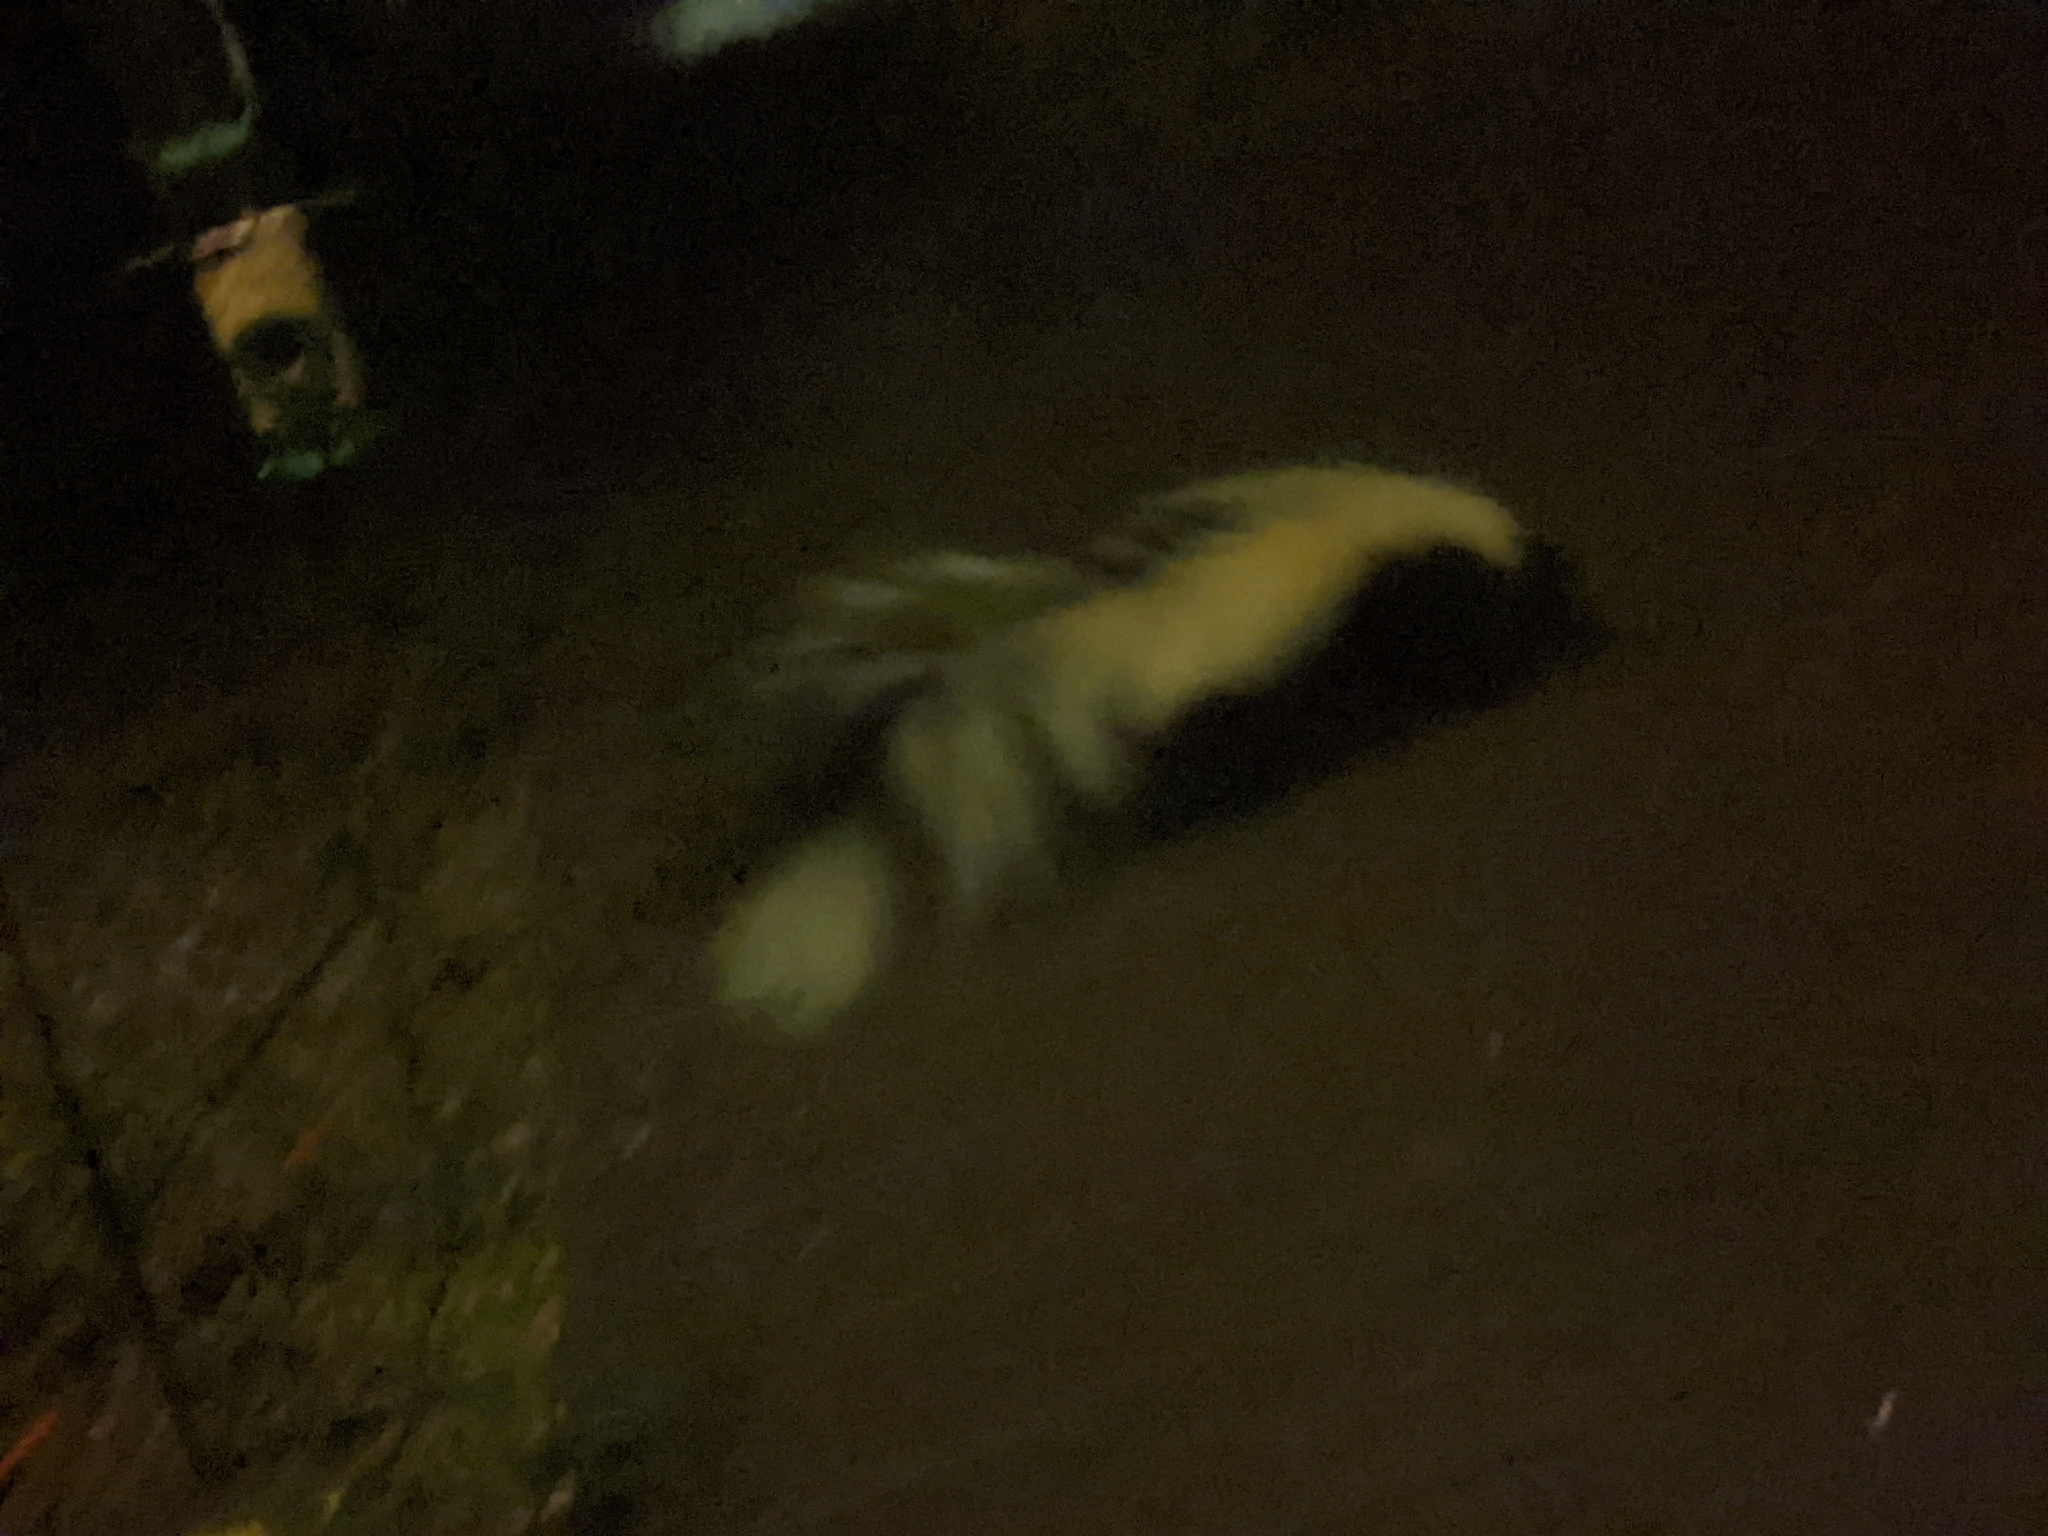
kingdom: Animalia
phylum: Chordata
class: Mammalia
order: Carnivora
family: Mephitidae
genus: Mephitis
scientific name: Mephitis mephitis
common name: Striped skunk
